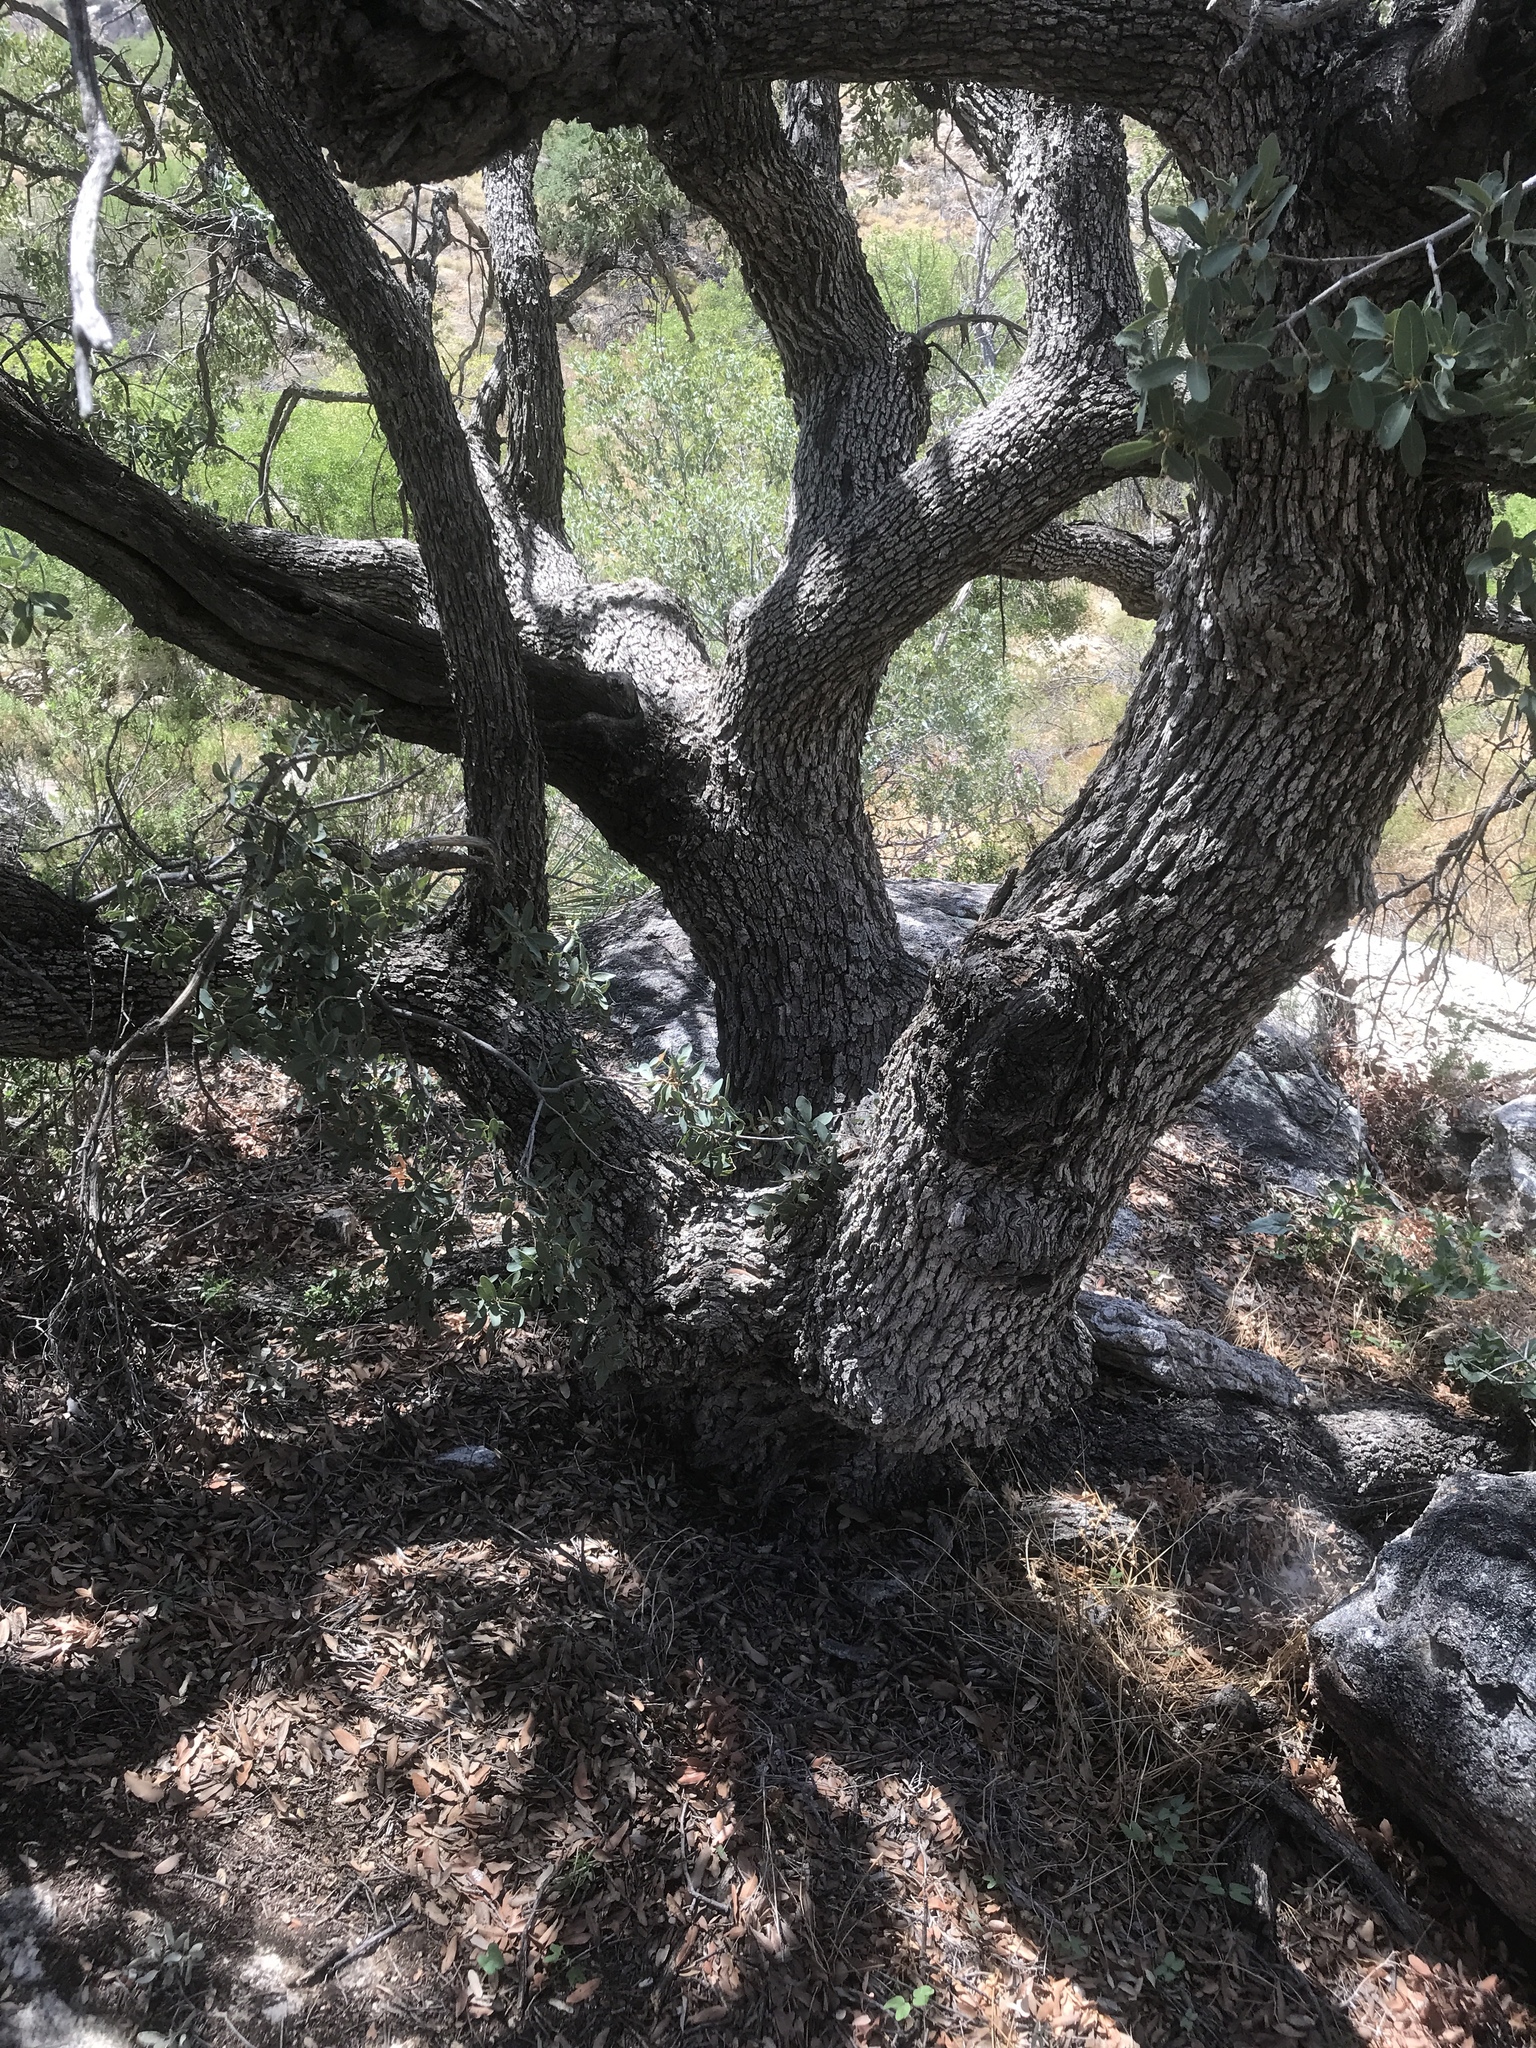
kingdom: Plantae
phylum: Tracheophyta
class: Magnoliopsida
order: Fagales
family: Fagaceae
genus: Quercus
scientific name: Quercus oblongifolia
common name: Mexican blue oak
